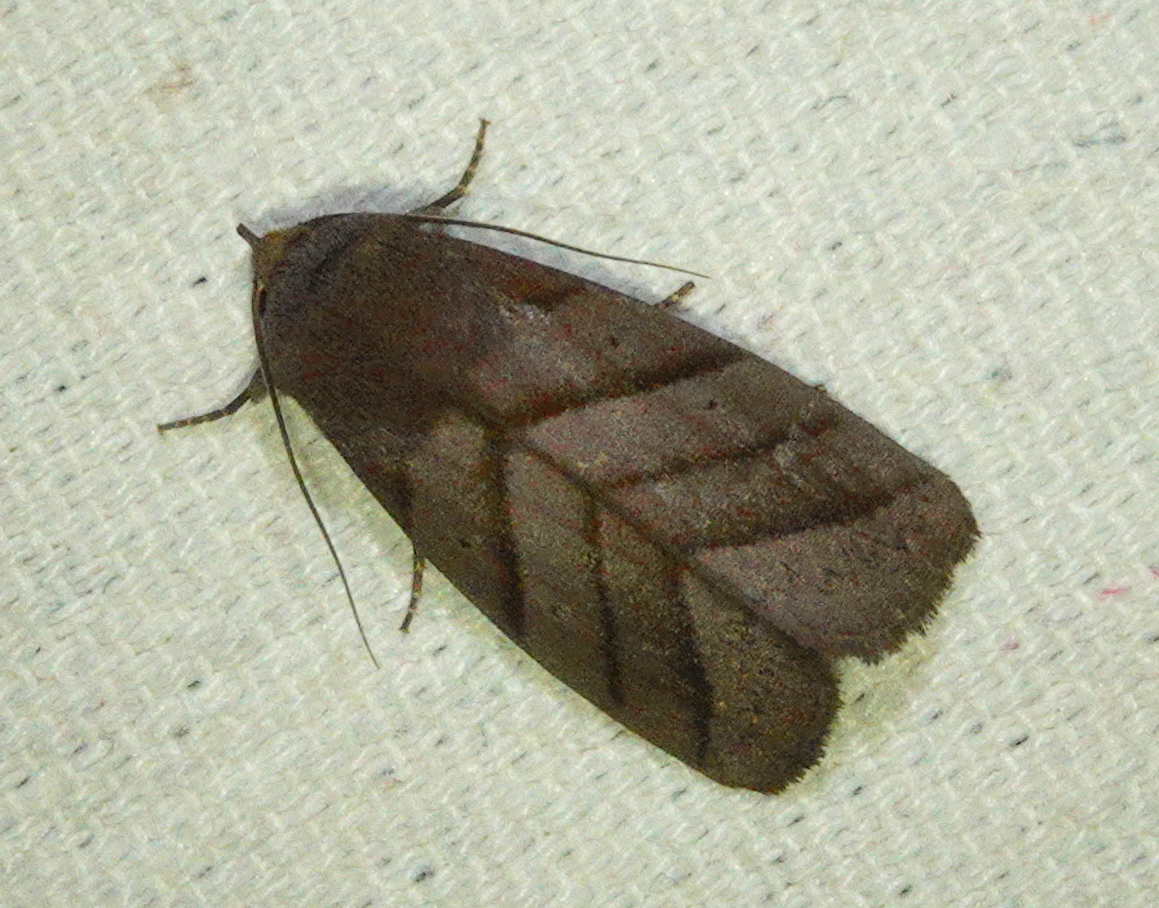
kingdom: Animalia
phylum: Arthropoda
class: Insecta
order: Lepidoptera
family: Erebidae
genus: Asta
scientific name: Asta quadrilinea
